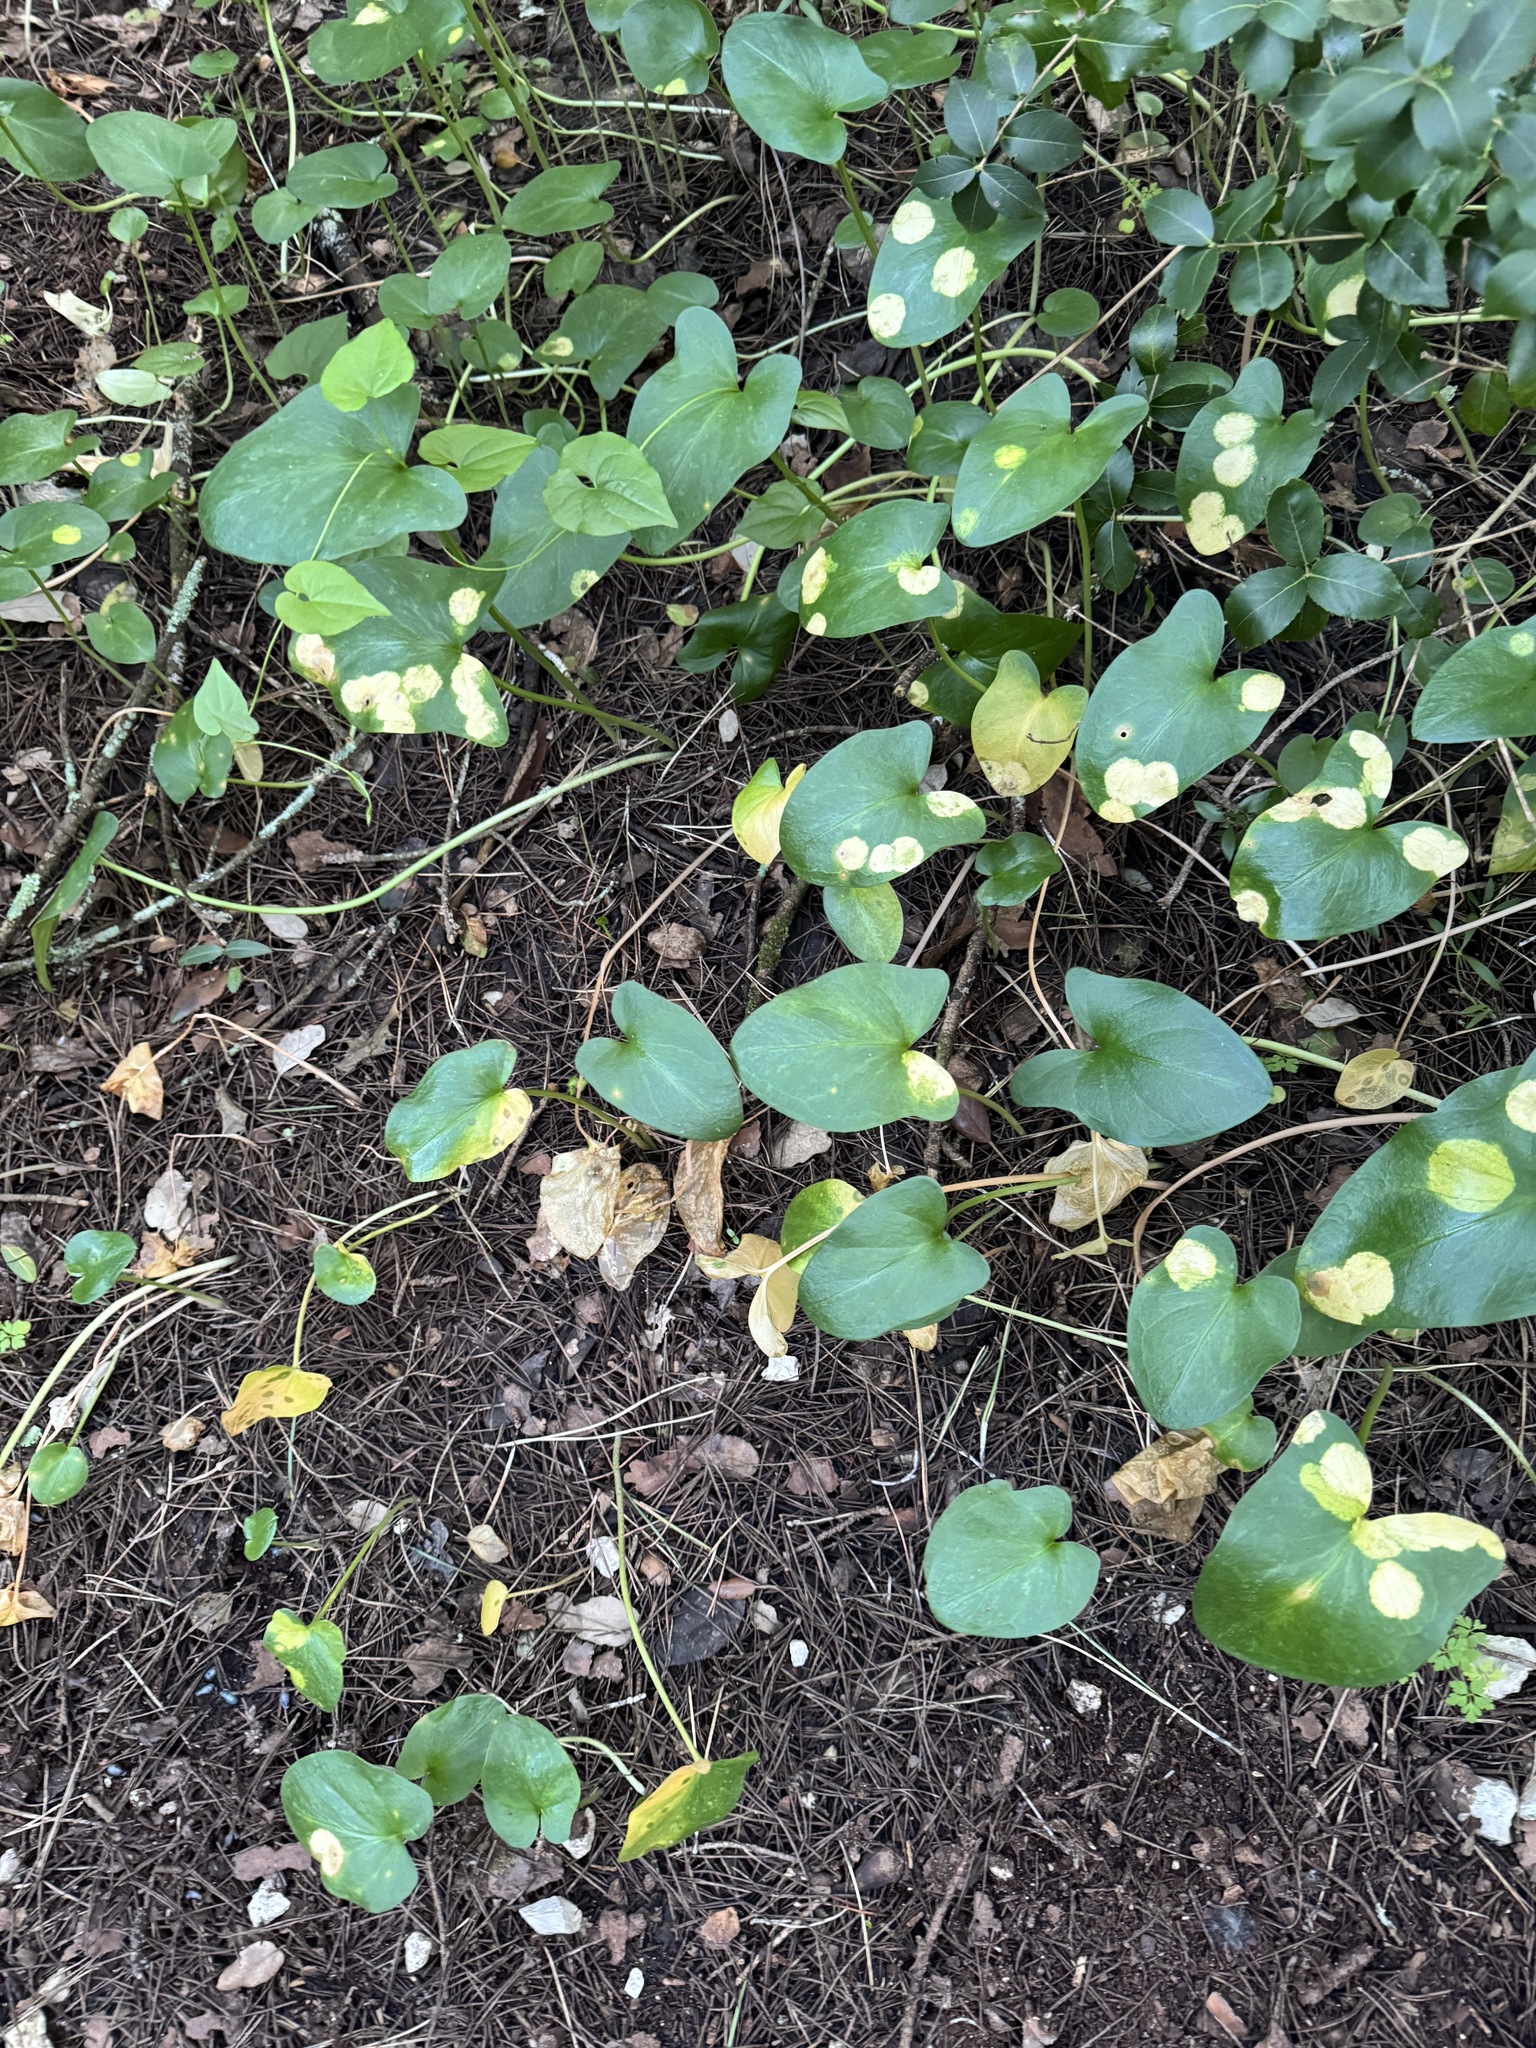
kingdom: Plantae
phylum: Tracheophyta
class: Liliopsida
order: Alismatales
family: Araceae
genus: Arisarum
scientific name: Arisarum simorrhinum
